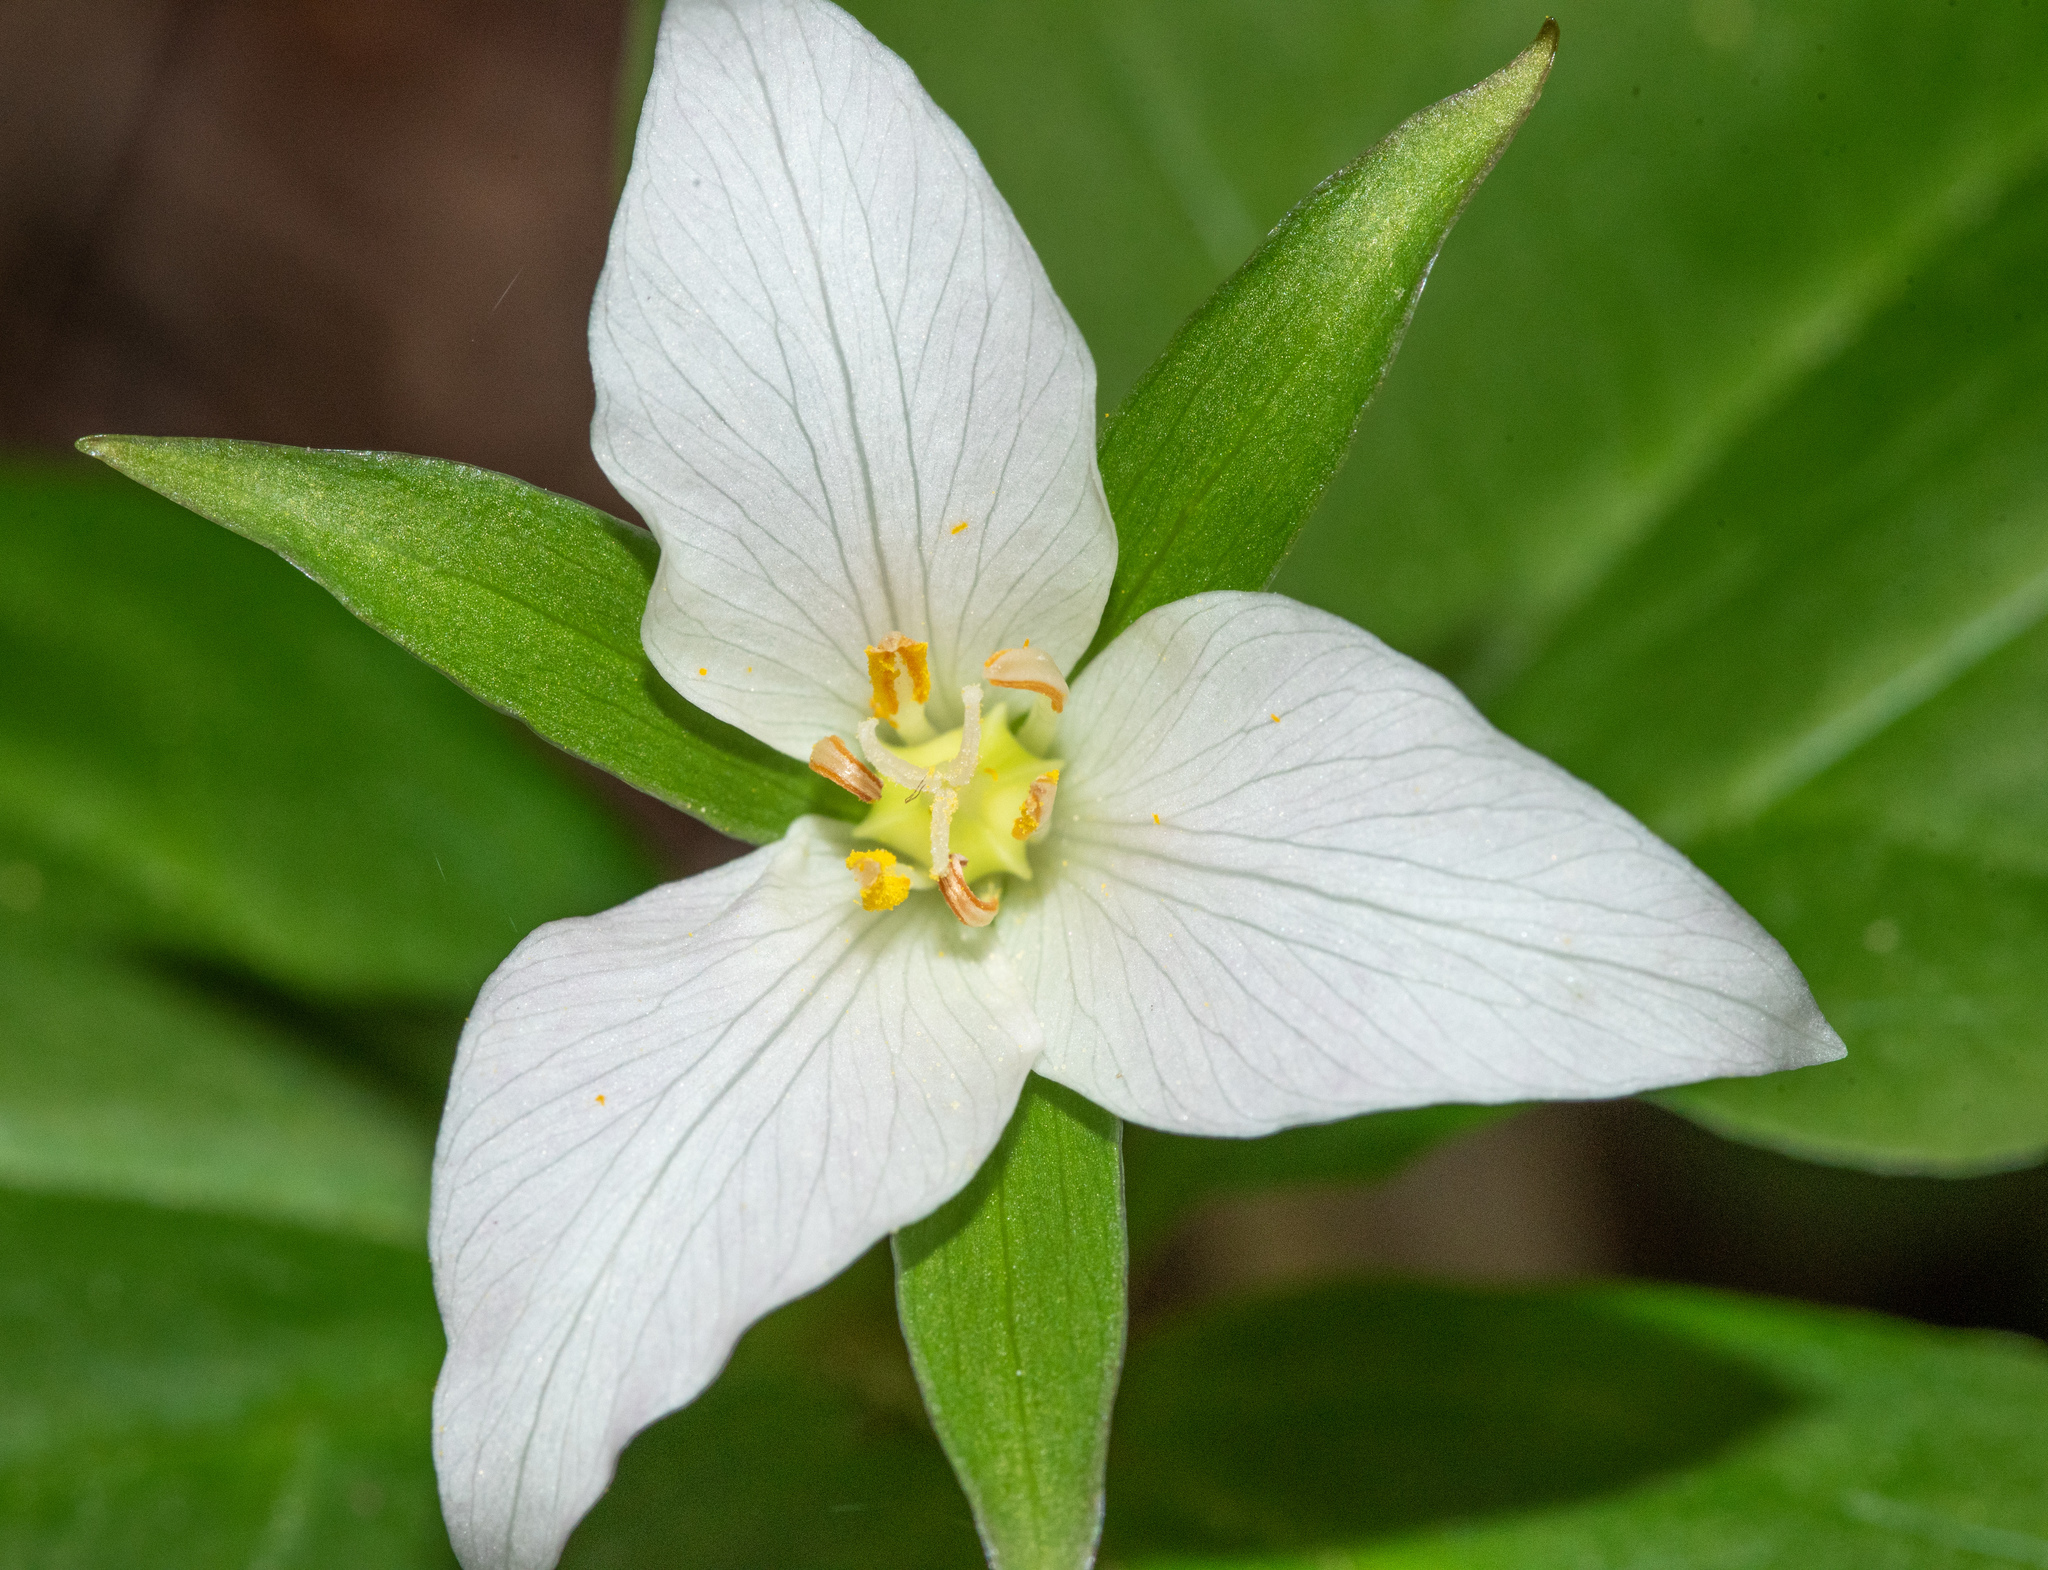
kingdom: Plantae
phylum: Tracheophyta
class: Liliopsida
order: Liliales
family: Melanthiaceae
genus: Trillium
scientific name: Trillium ovatum
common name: Pacific trillium
